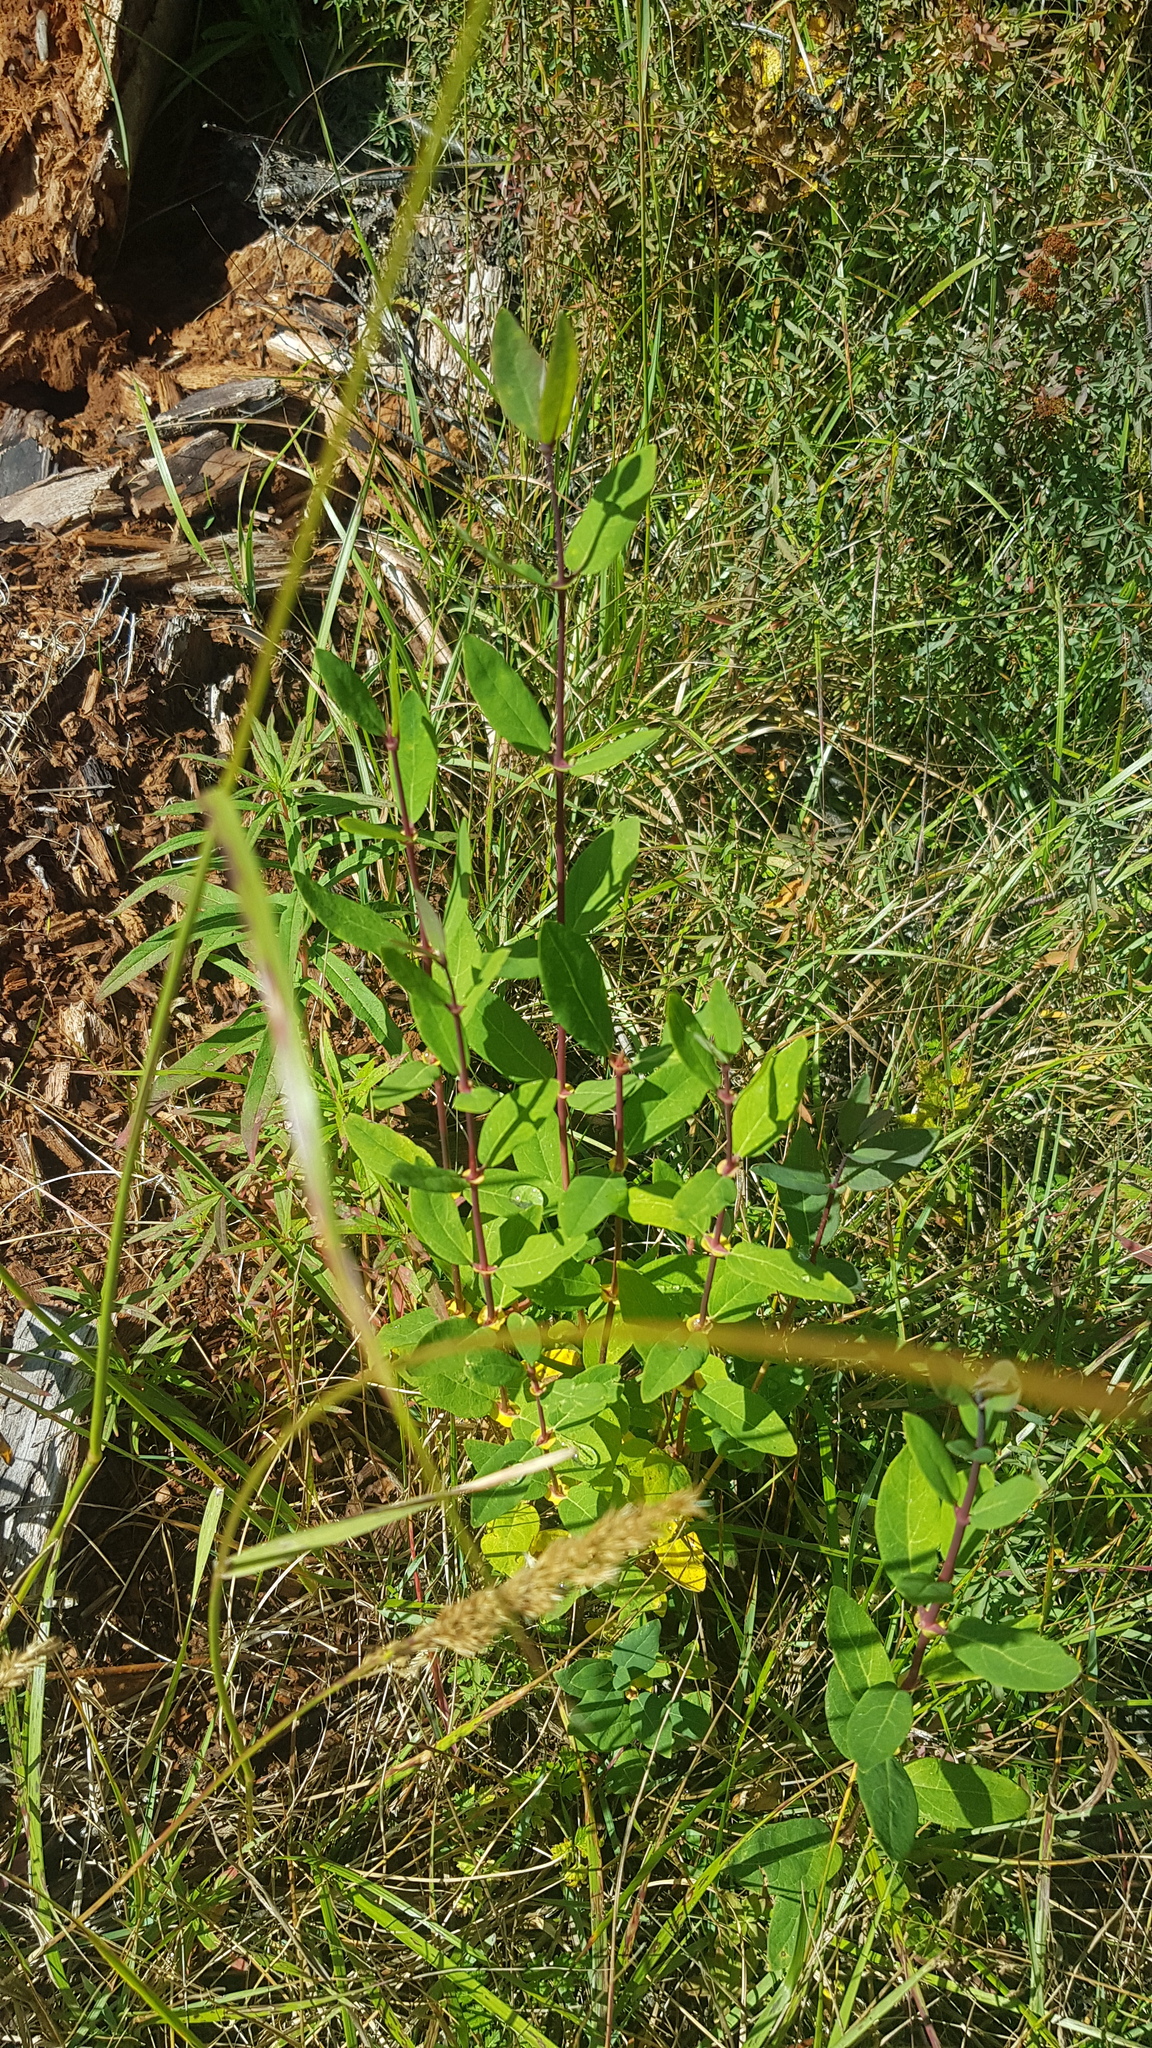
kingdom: Plantae
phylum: Tracheophyta
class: Magnoliopsida
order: Dipsacales
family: Caprifoliaceae
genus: Lonicera
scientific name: Lonicera caerulea
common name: Blue honeysuckle
